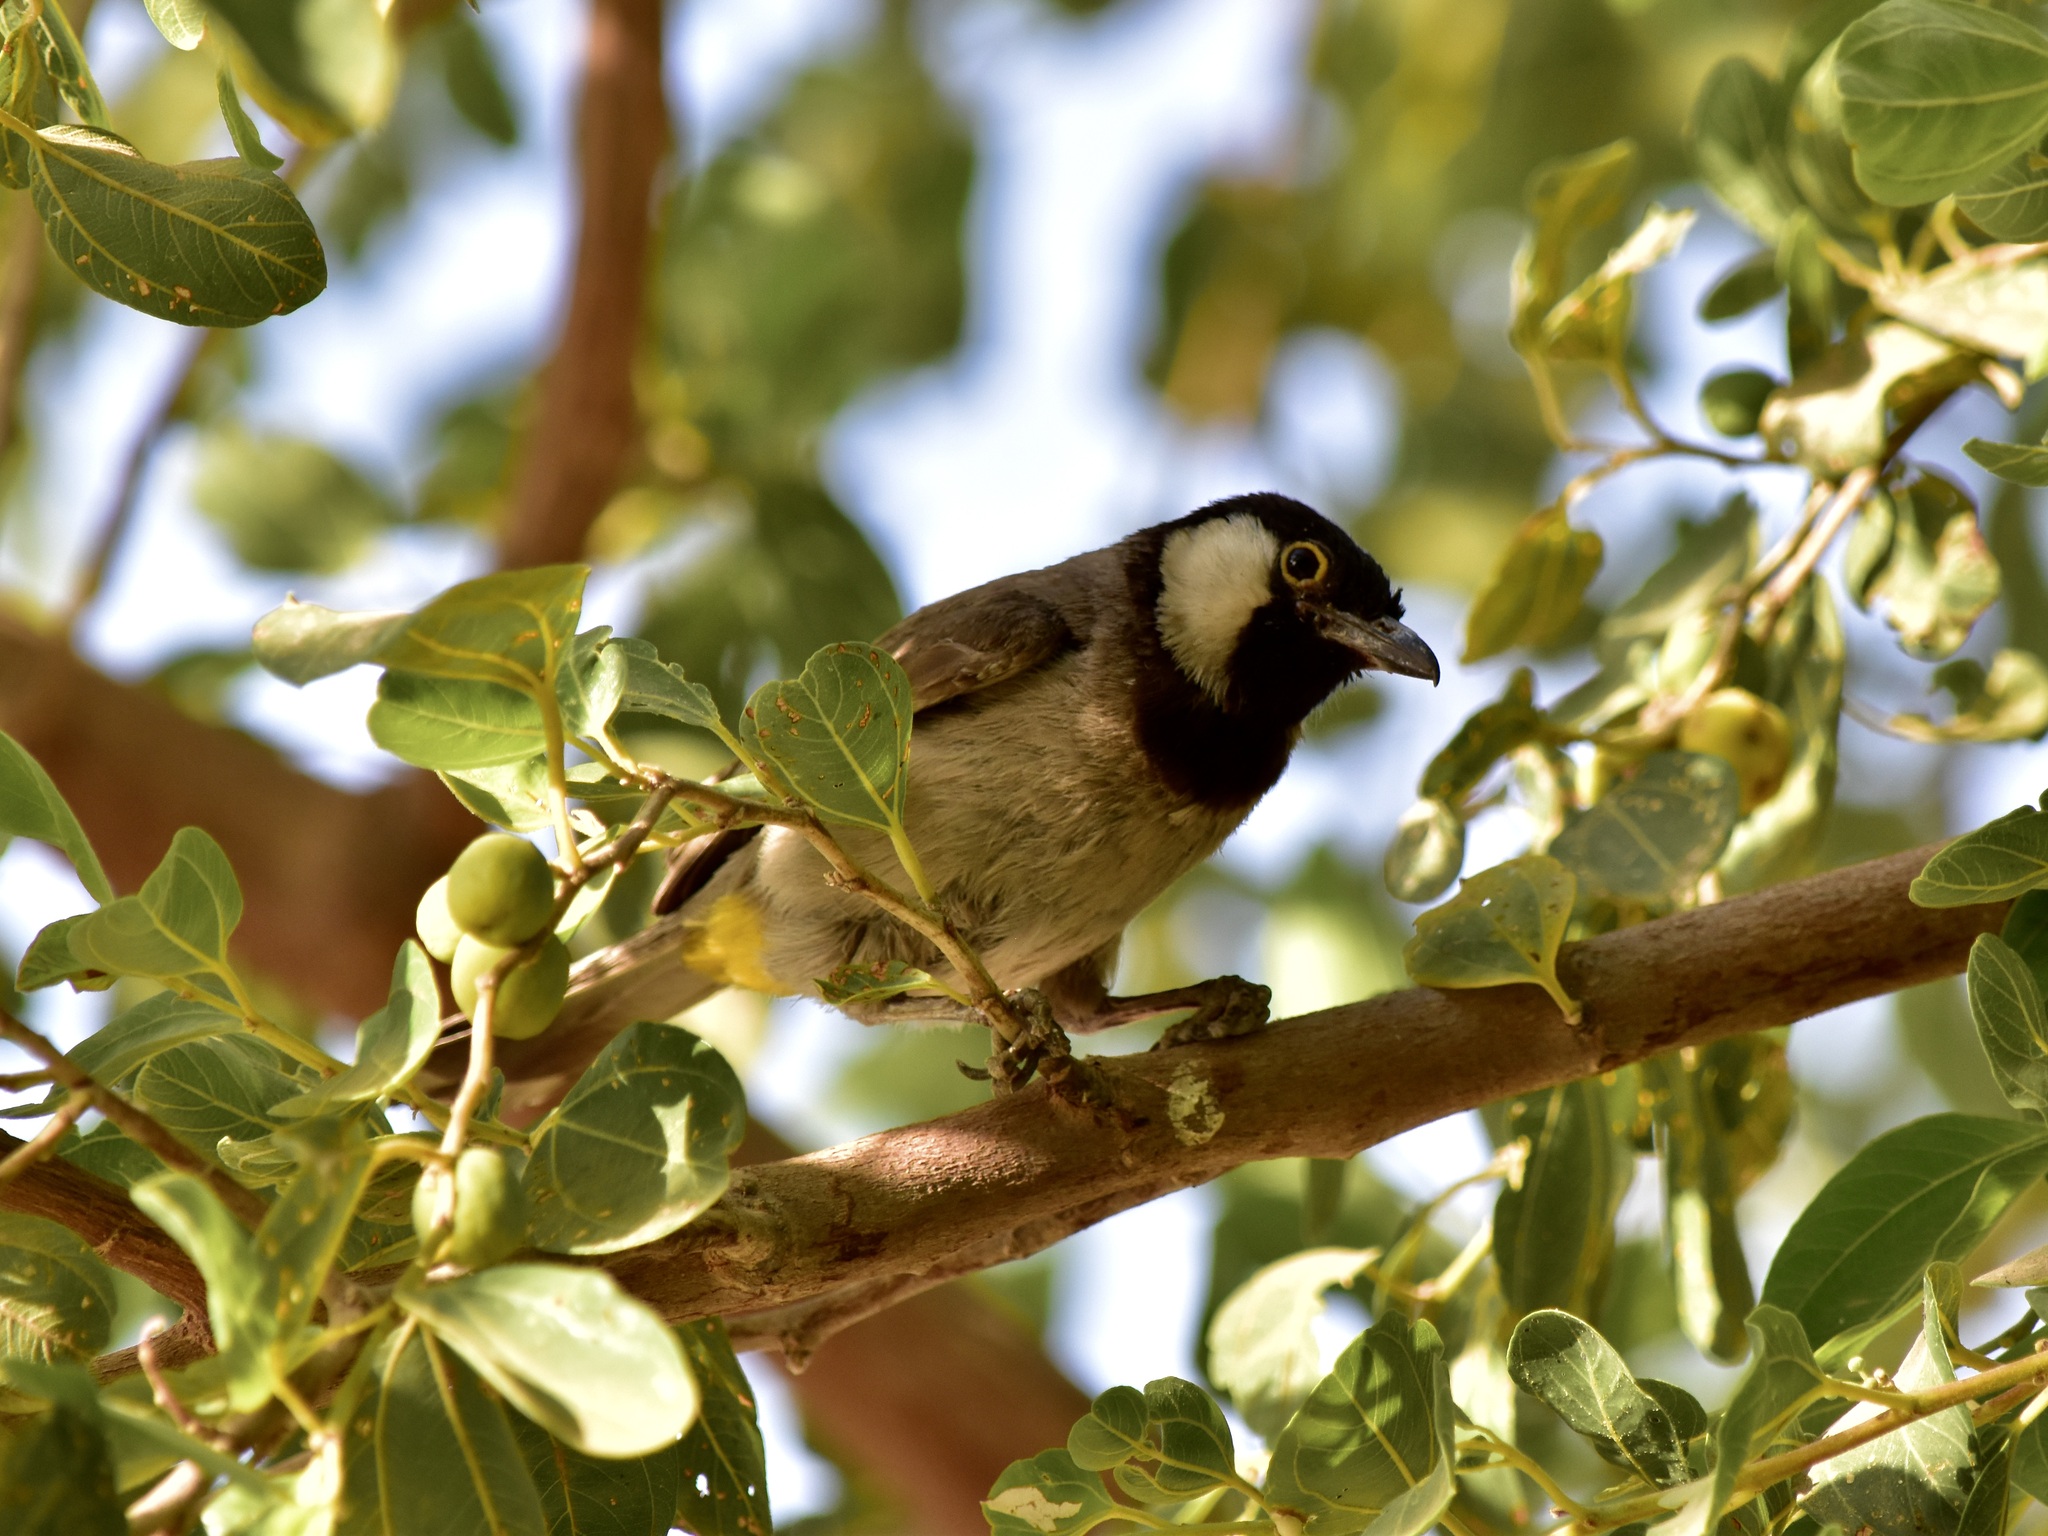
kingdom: Animalia
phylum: Chordata
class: Aves
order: Passeriformes
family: Pycnonotidae
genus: Pycnonotus
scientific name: Pycnonotus leucotis
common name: White-eared bulbul
